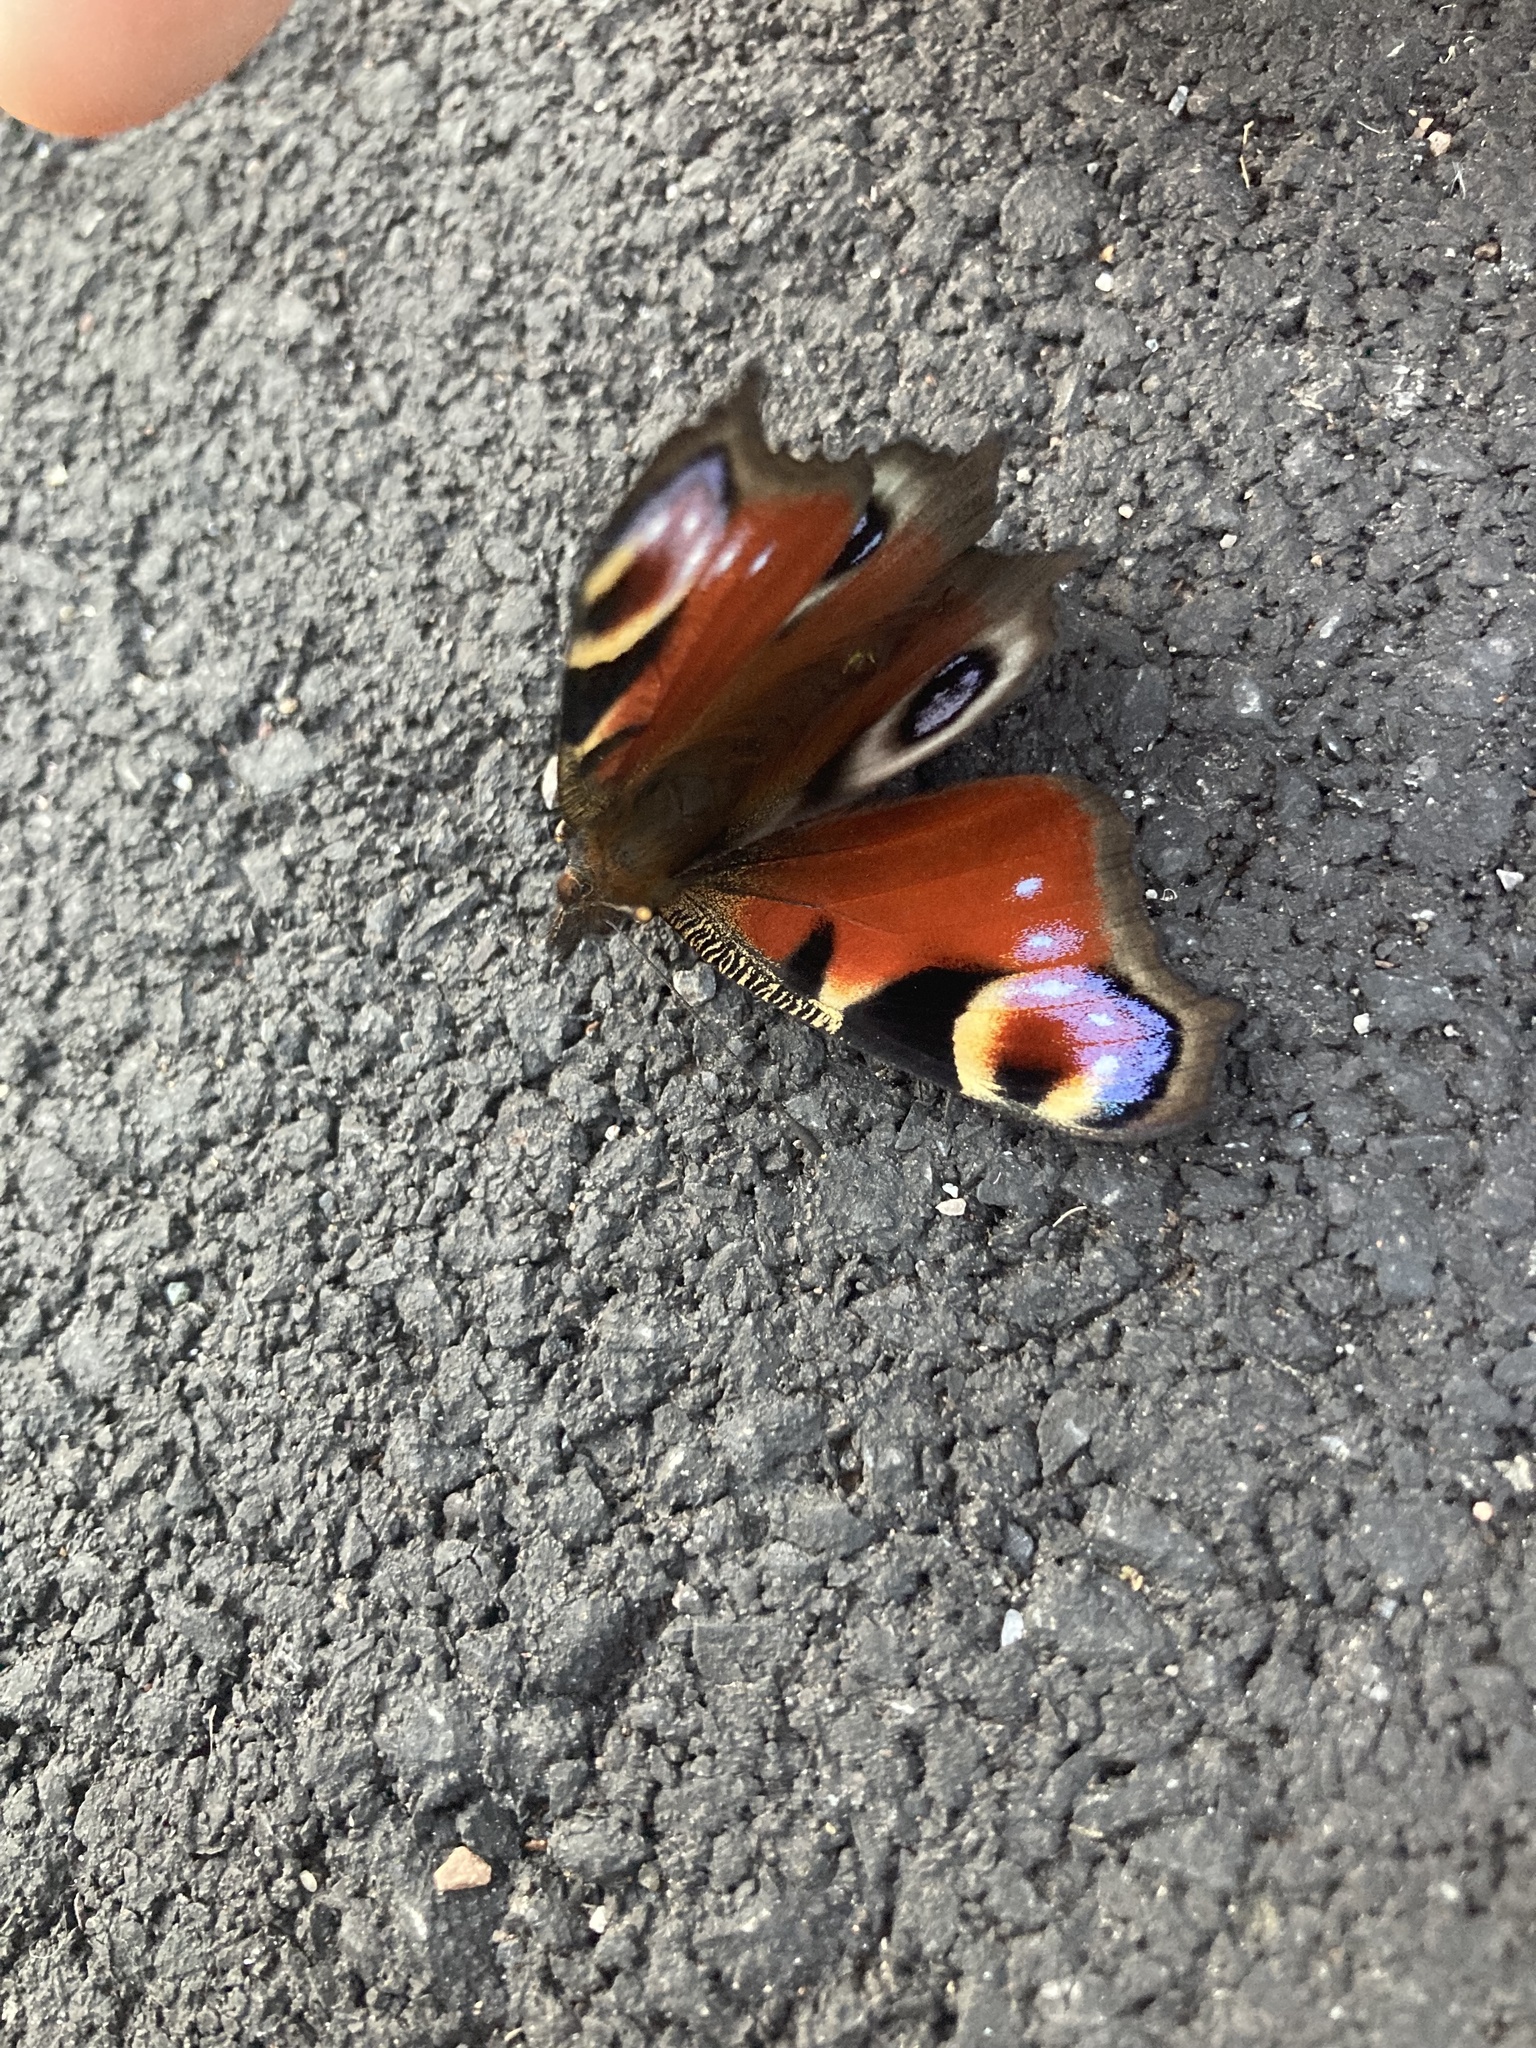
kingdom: Animalia
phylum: Arthropoda
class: Insecta
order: Lepidoptera
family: Nymphalidae
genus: Aglais
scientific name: Aglais io
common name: Peacock
